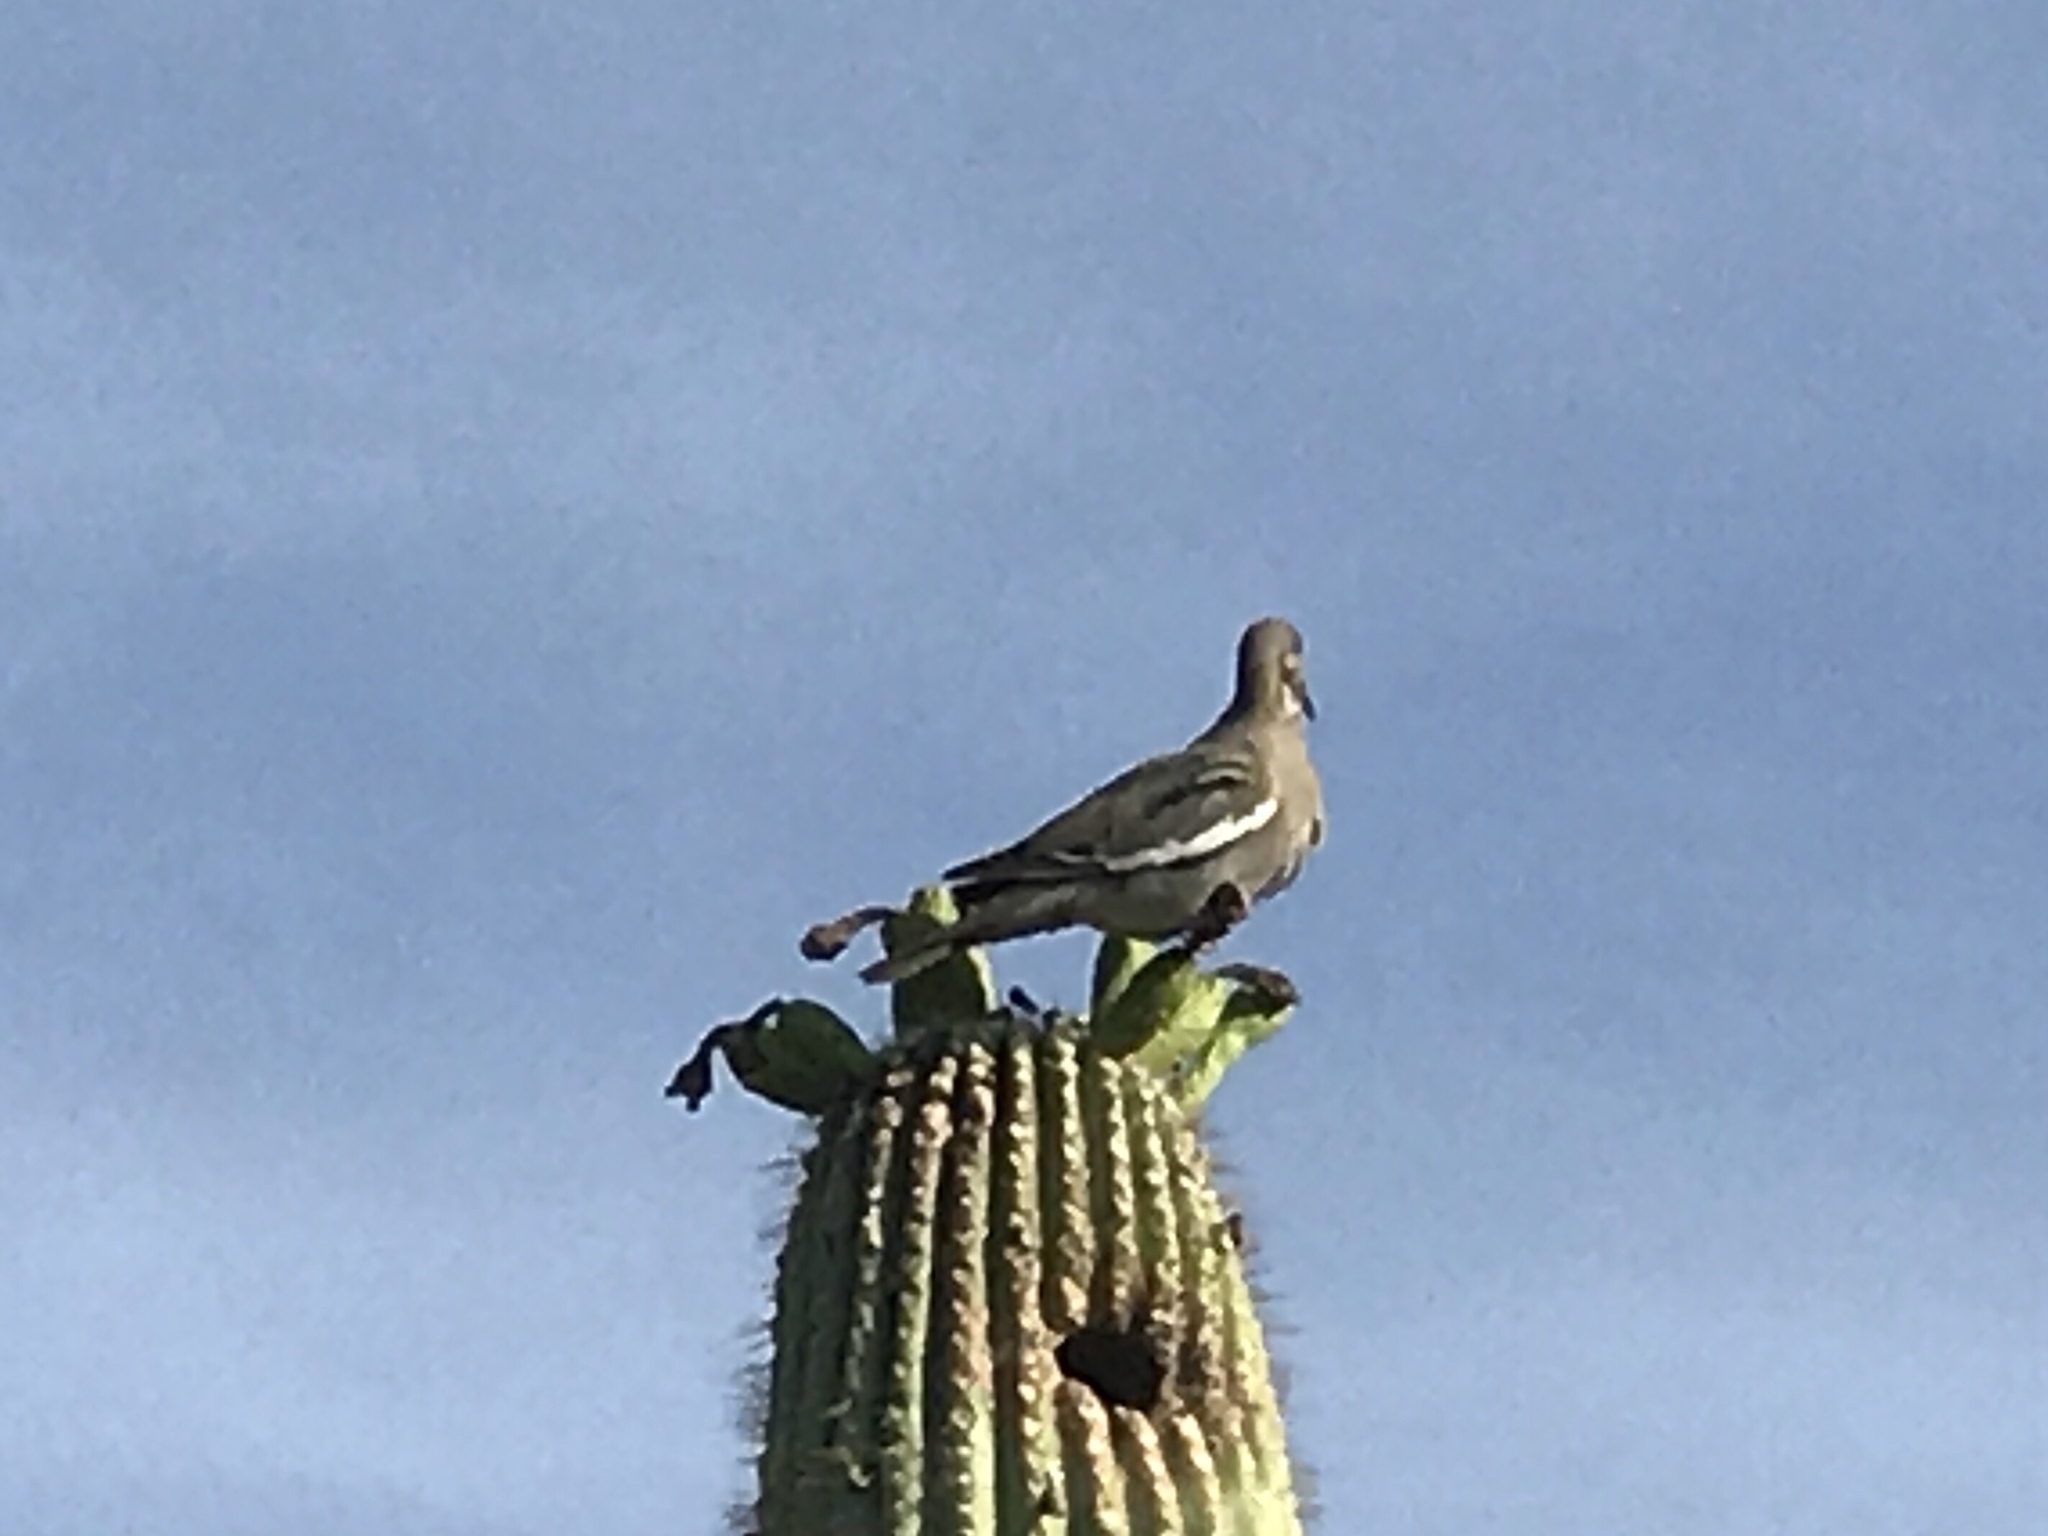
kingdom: Animalia
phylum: Chordata
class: Aves
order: Columbiformes
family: Columbidae
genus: Zenaida
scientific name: Zenaida asiatica
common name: White-winged dove
